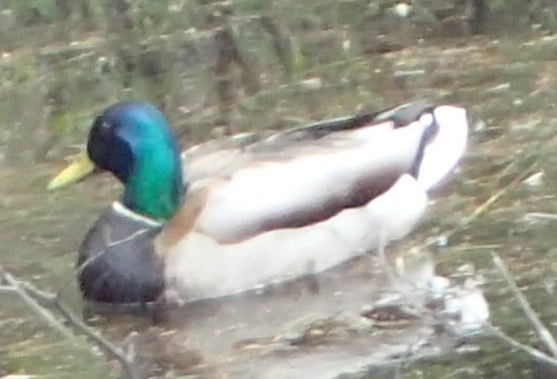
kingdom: Animalia
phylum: Chordata
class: Aves
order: Anseriformes
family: Anatidae
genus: Anas
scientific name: Anas platyrhynchos
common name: Mallard
